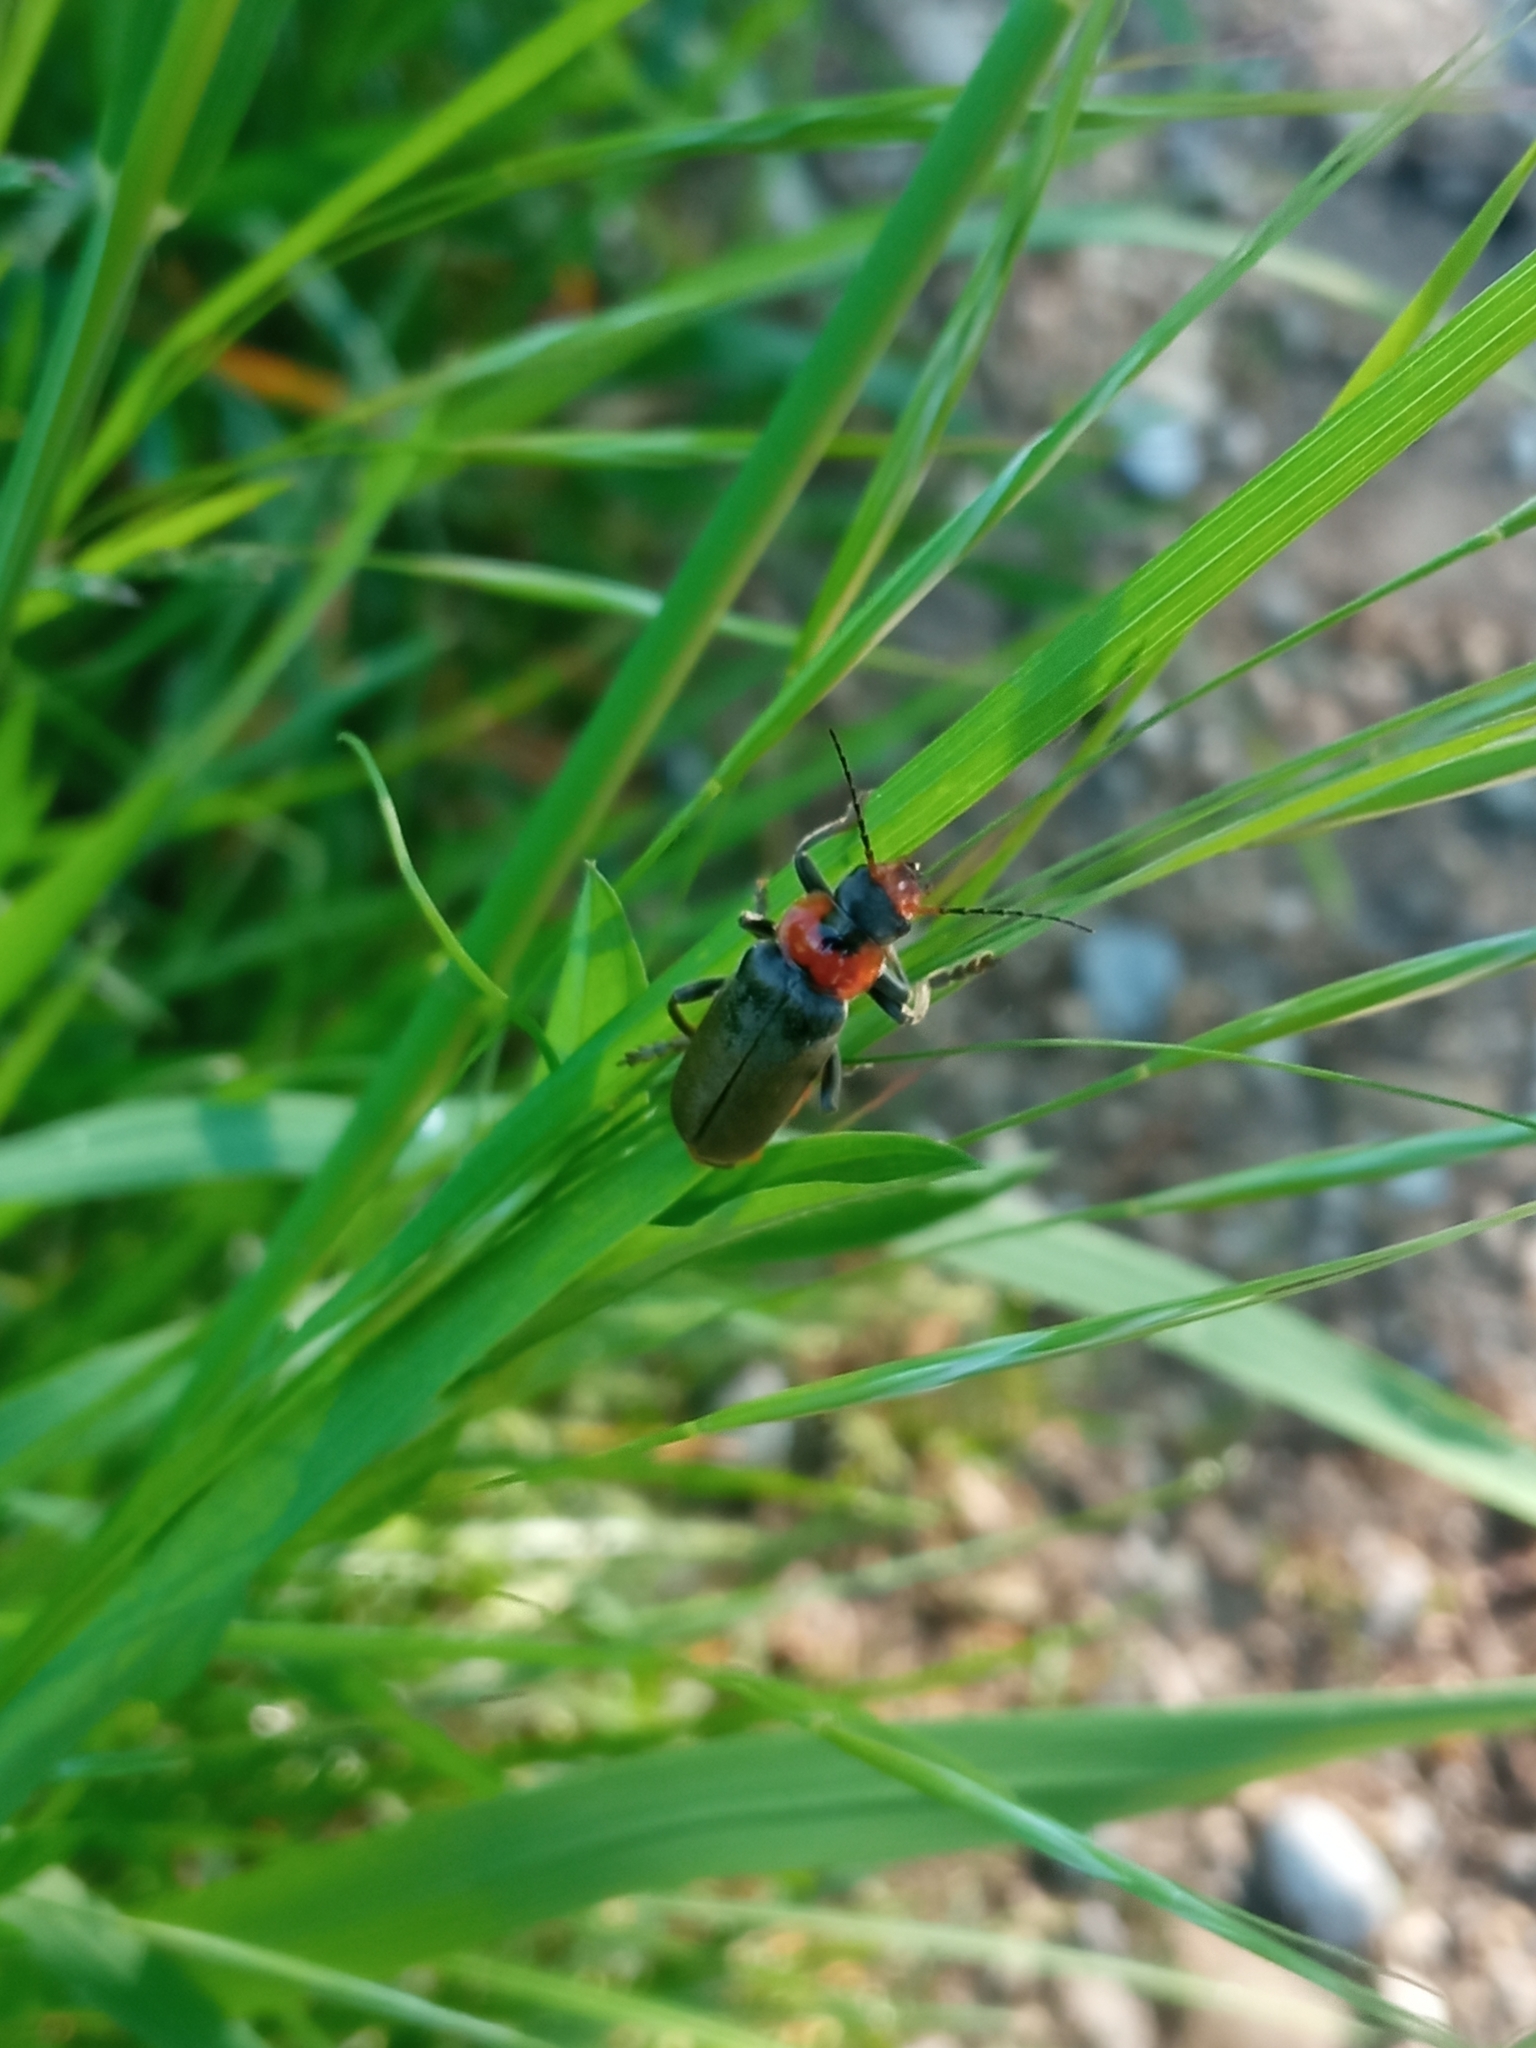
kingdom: Animalia
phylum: Arthropoda
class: Insecta
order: Coleoptera
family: Cantharidae
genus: Cantharis
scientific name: Cantharis fusca
